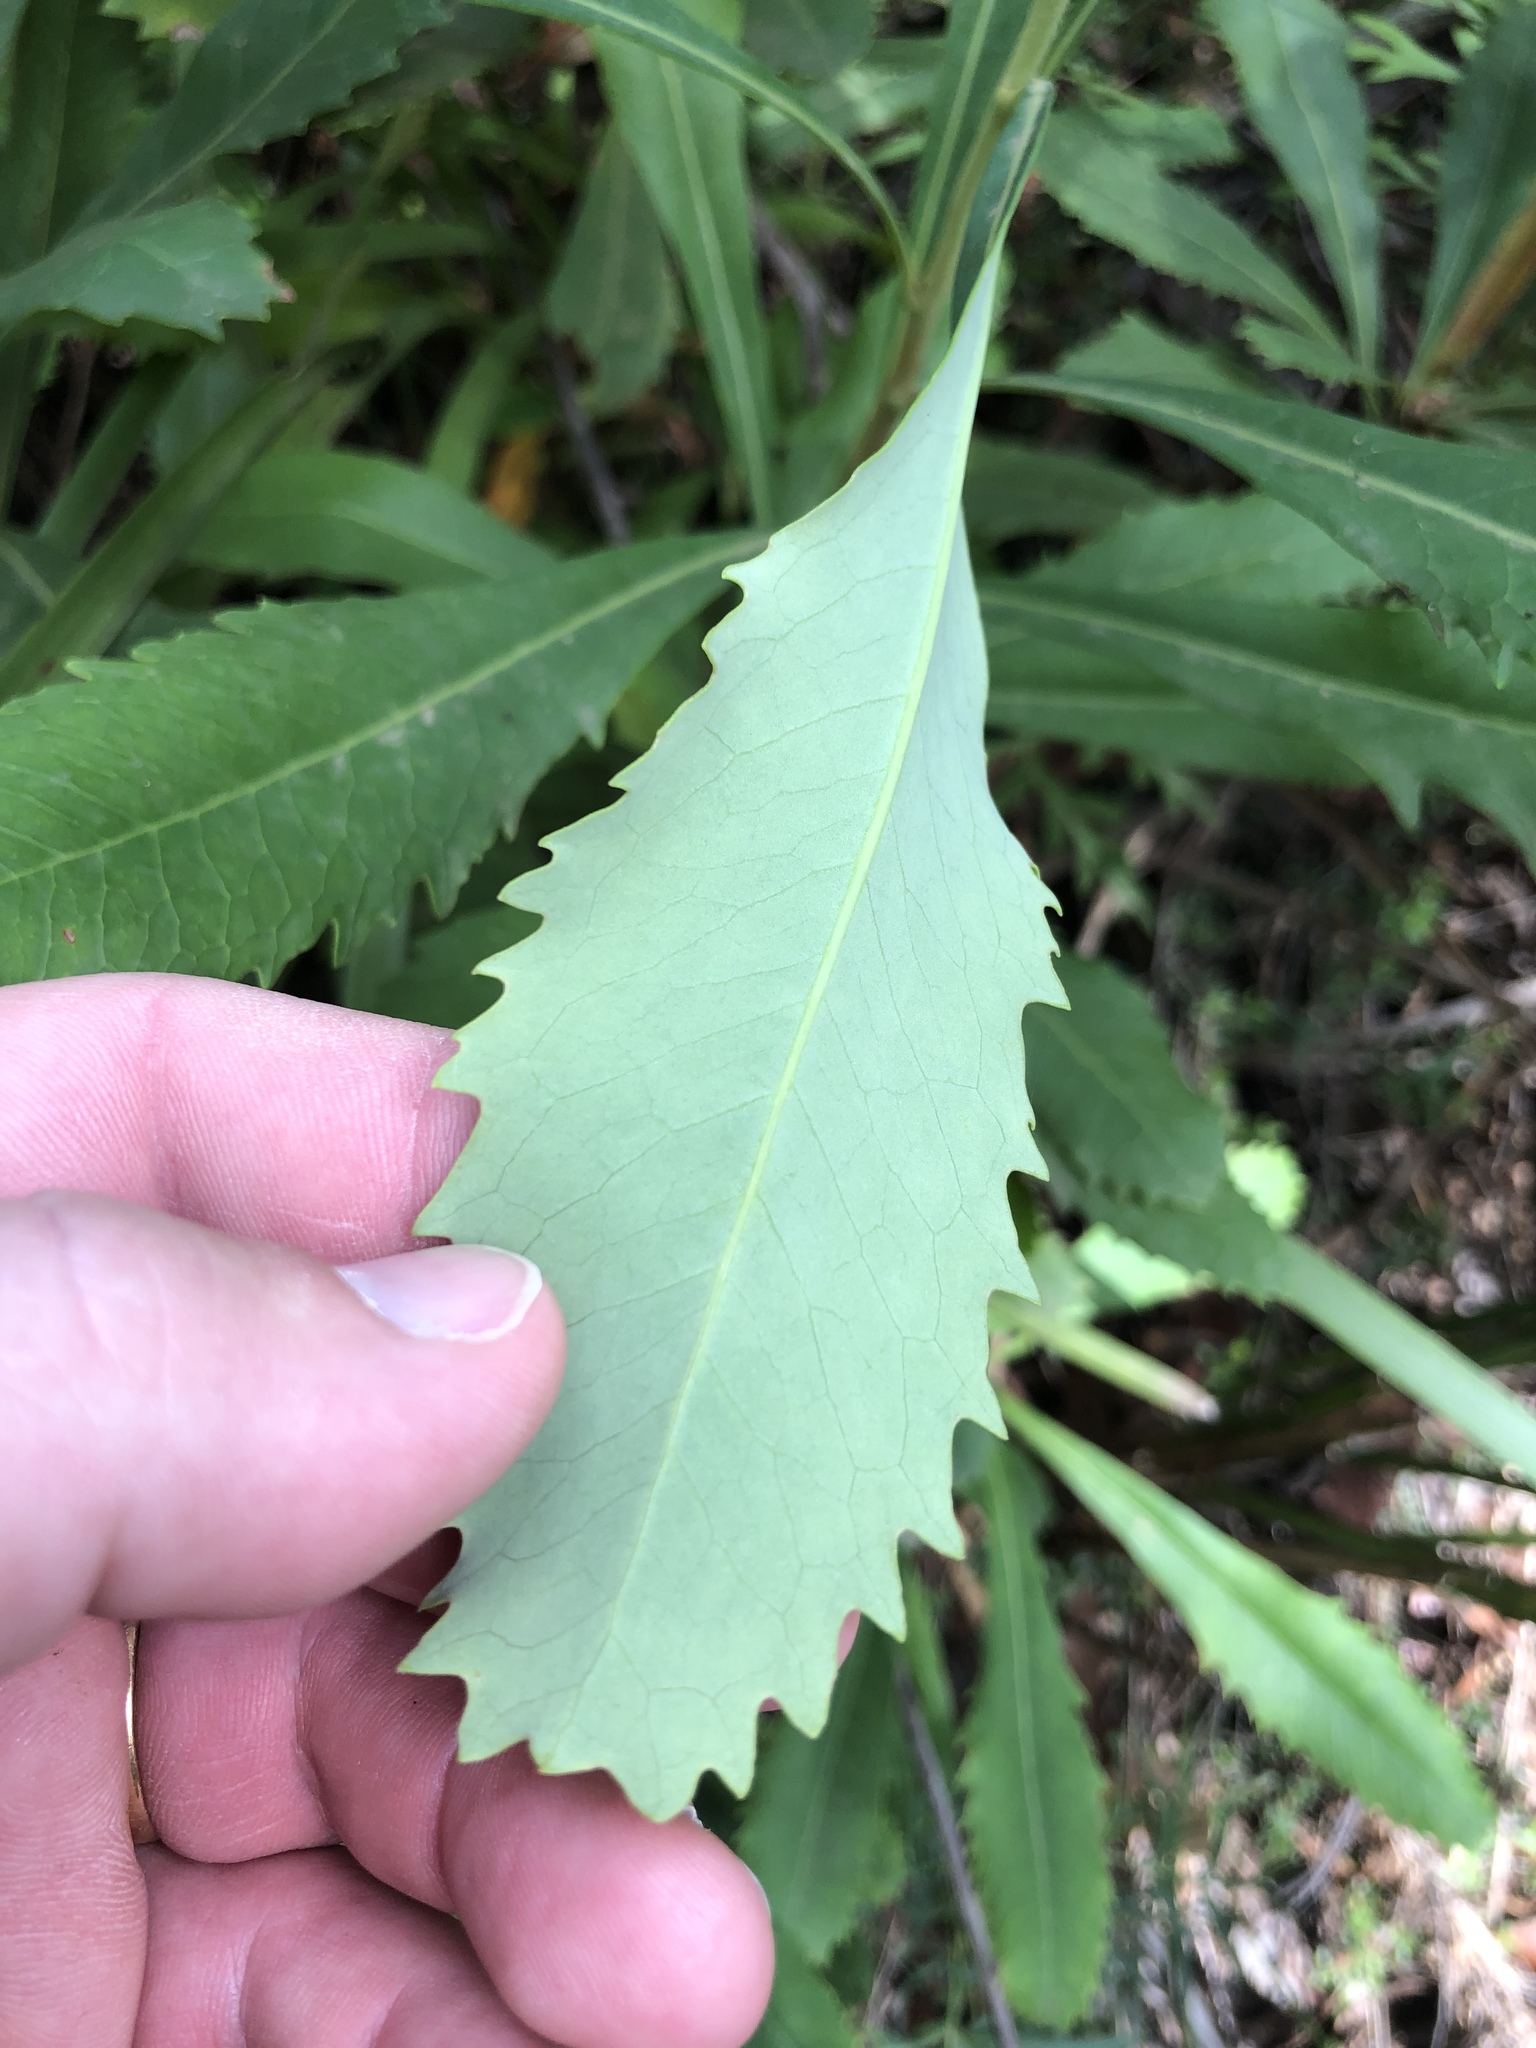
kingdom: Plantae
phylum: Tracheophyta
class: Magnoliopsida
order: Proteales
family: Proteaceae
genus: Telopea
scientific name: Telopea speciosissima
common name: New south wales waratah
